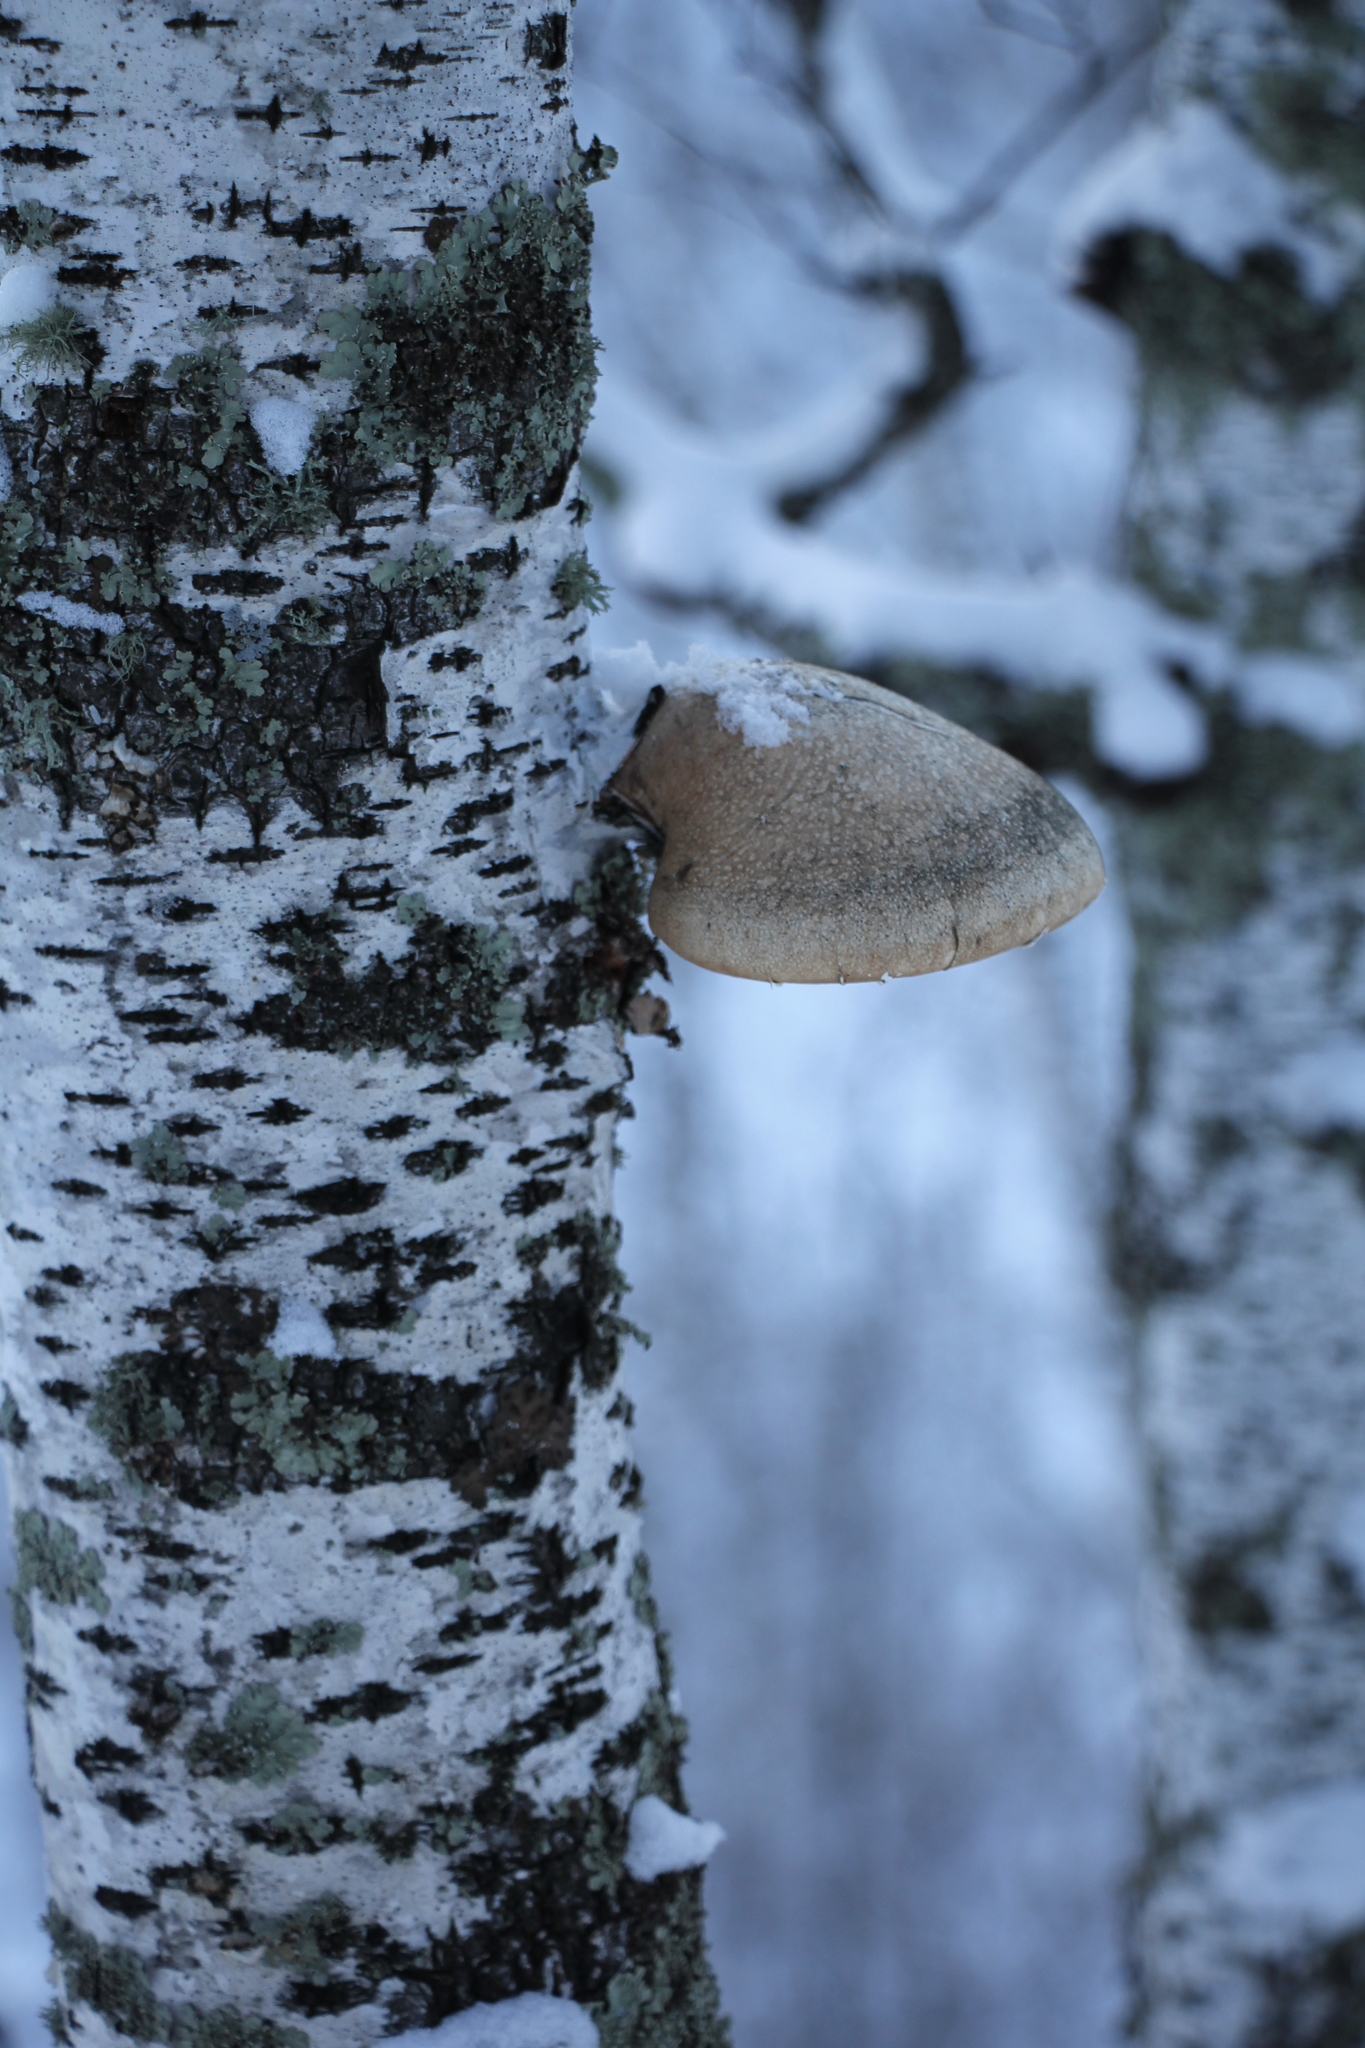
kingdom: Fungi
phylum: Basidiomycota
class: Agaricomycetes
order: Polyporales
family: Fomitopsidaceae
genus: Fomitopsis
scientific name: Fomitopsis betulina
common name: Birch polypore
